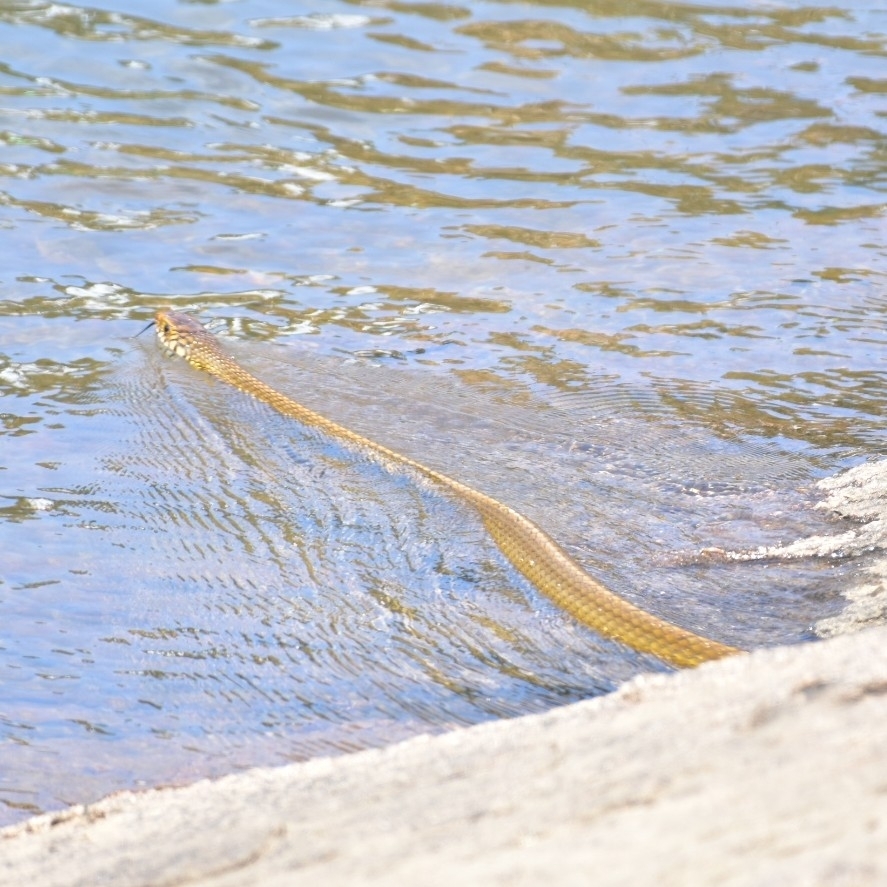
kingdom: Animalia
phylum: Chordata
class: Squamata
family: Colubridae
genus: Ptyas
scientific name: Ptyas mucosa
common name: Oriental ratsnake
